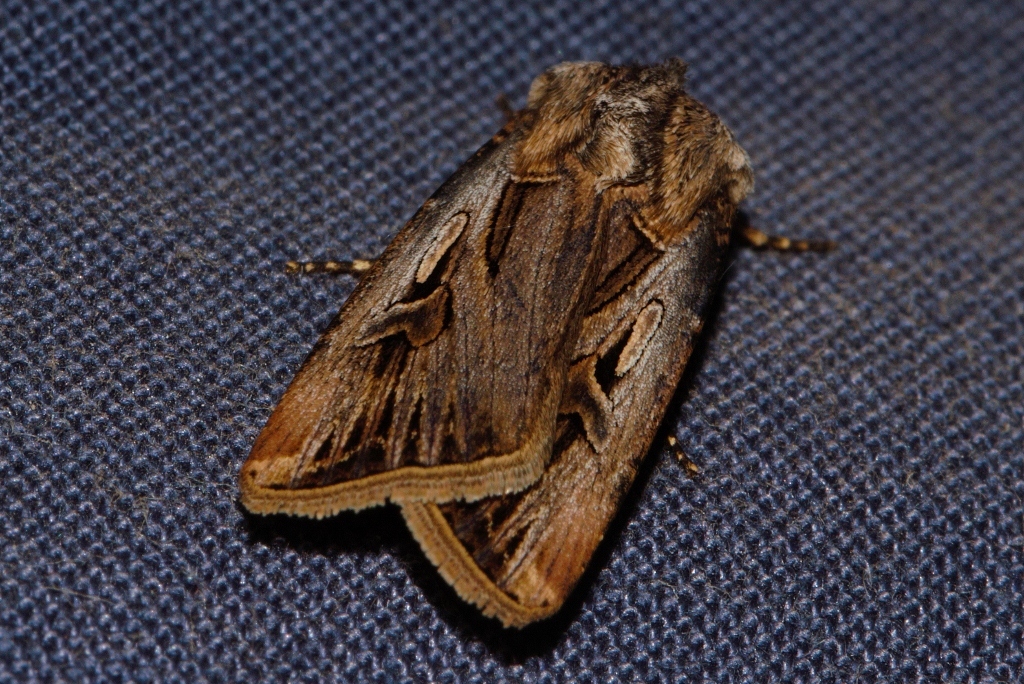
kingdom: Animalia
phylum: Arthropoda
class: Insecta
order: Lepidoptera
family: Noctuidae
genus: Agrotis
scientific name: Agrotis
